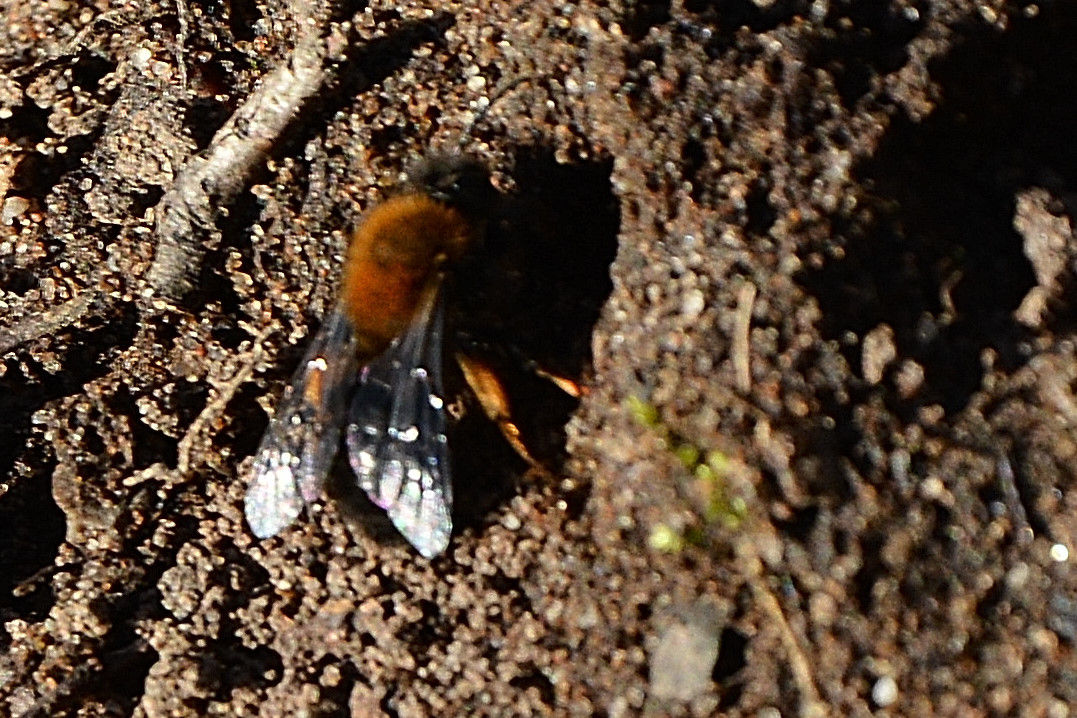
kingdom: Animalia
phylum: Arthropoda
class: Insecta
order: Hymenoptera
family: Andrenidae
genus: Andrena
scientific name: Andrena clarkella
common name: Clarke's mining bee
